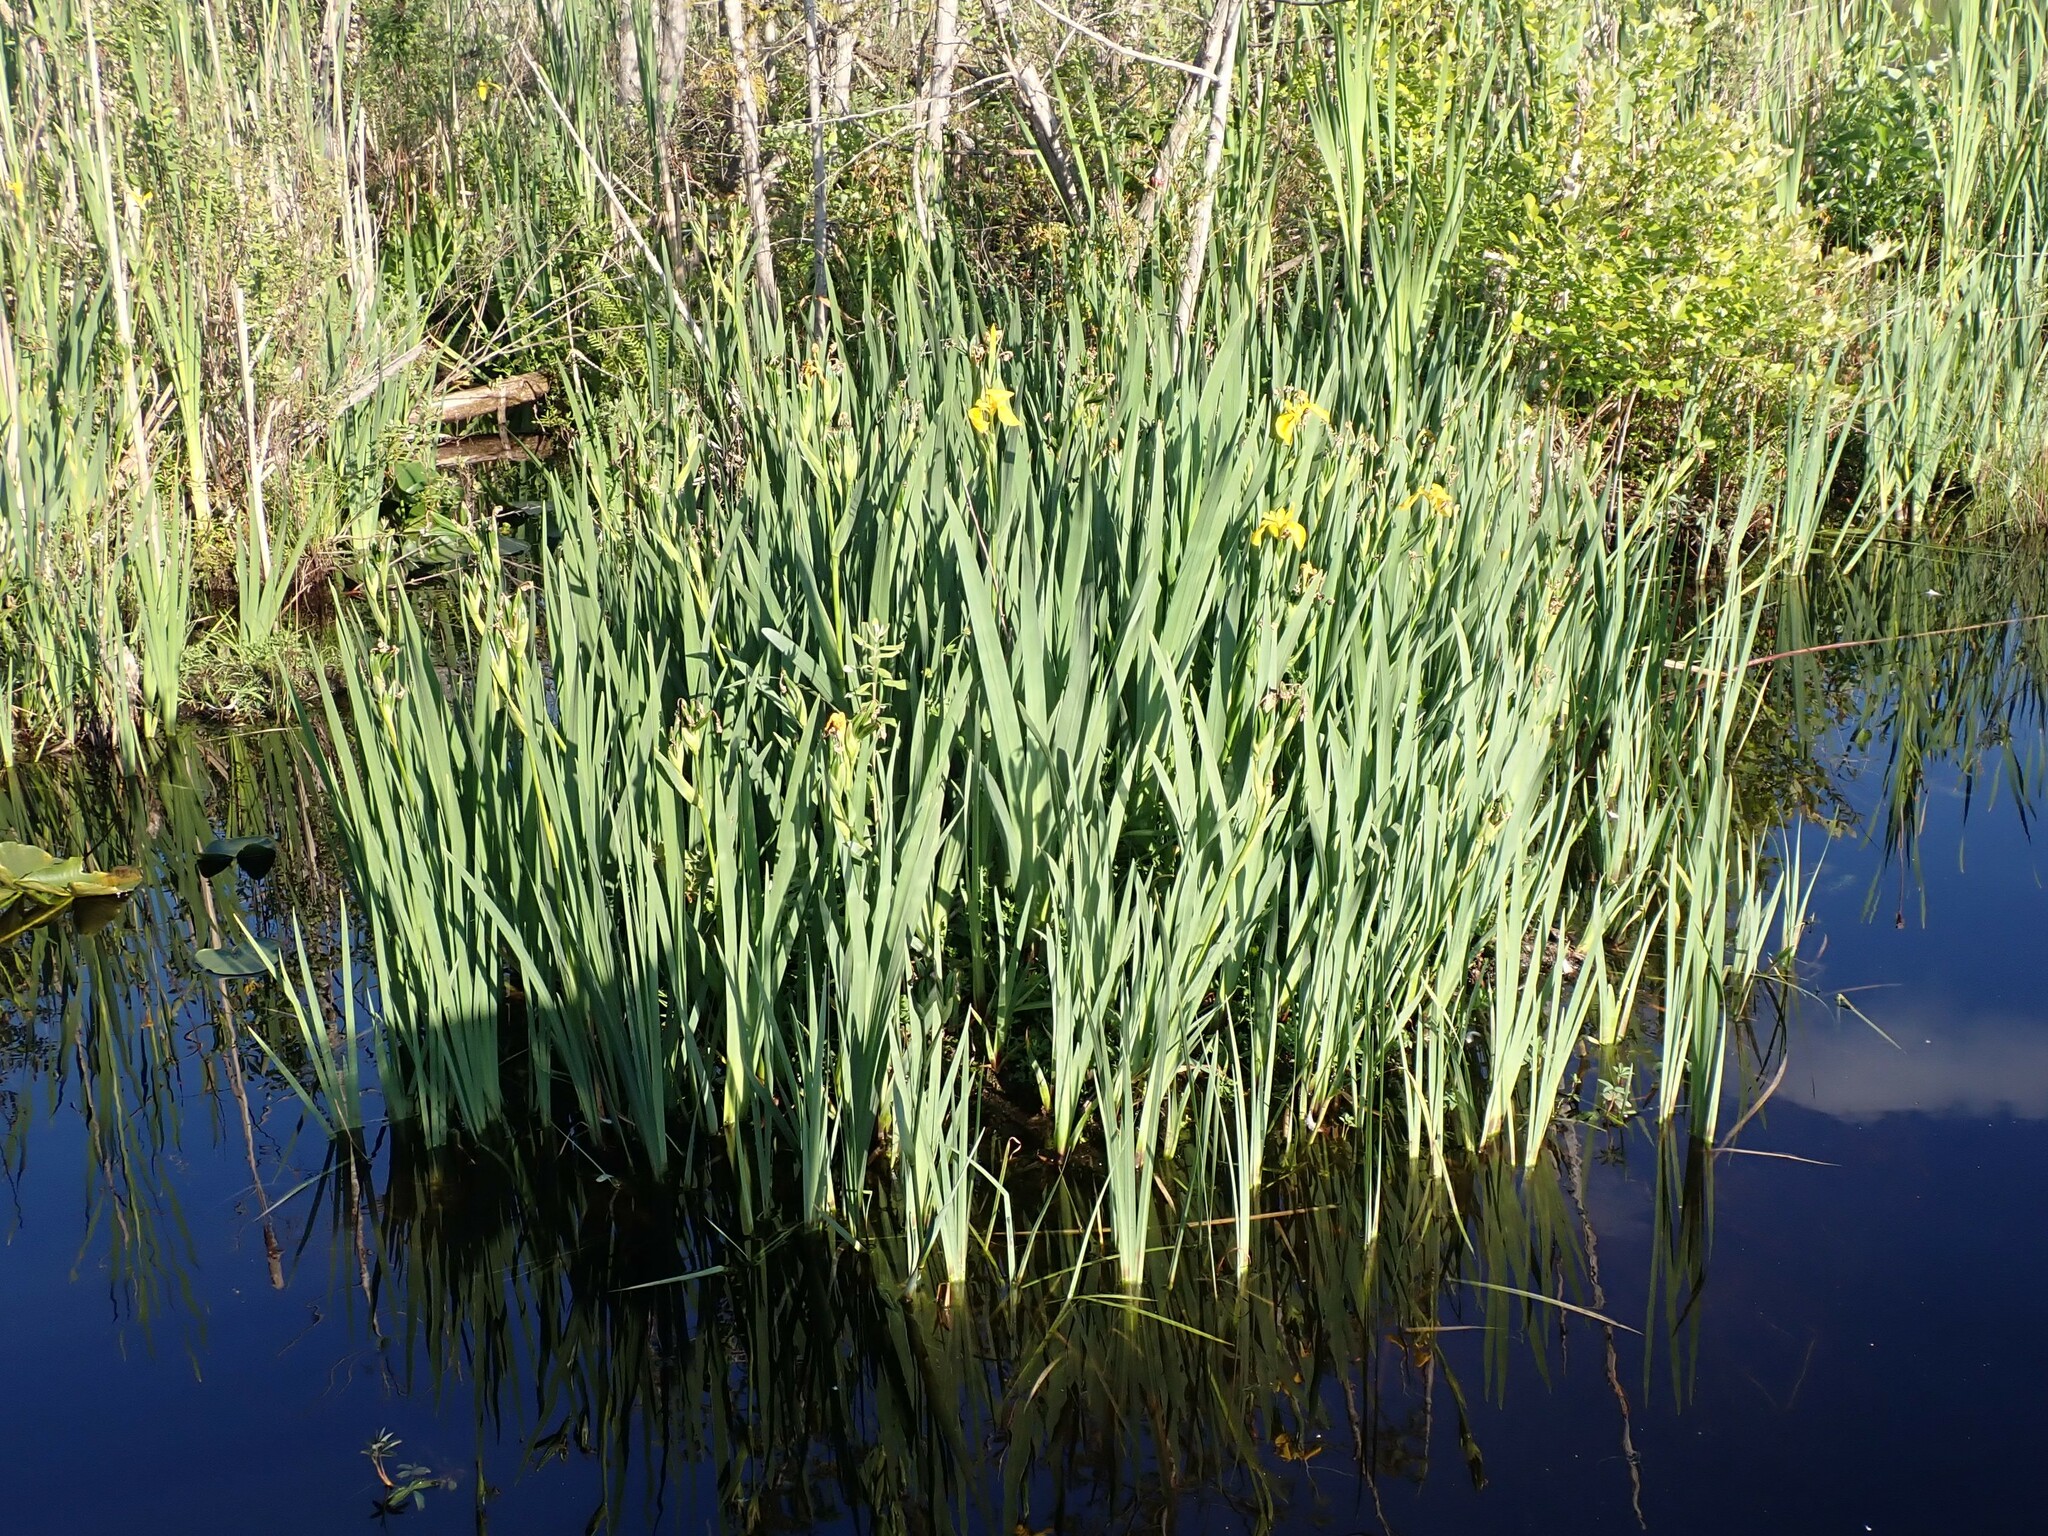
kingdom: Plantae
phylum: Tracheophyta
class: Liliopsida
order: Asparagales
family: Iridaceae
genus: Iris
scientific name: Iris pseudacorus
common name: Yellow flag
